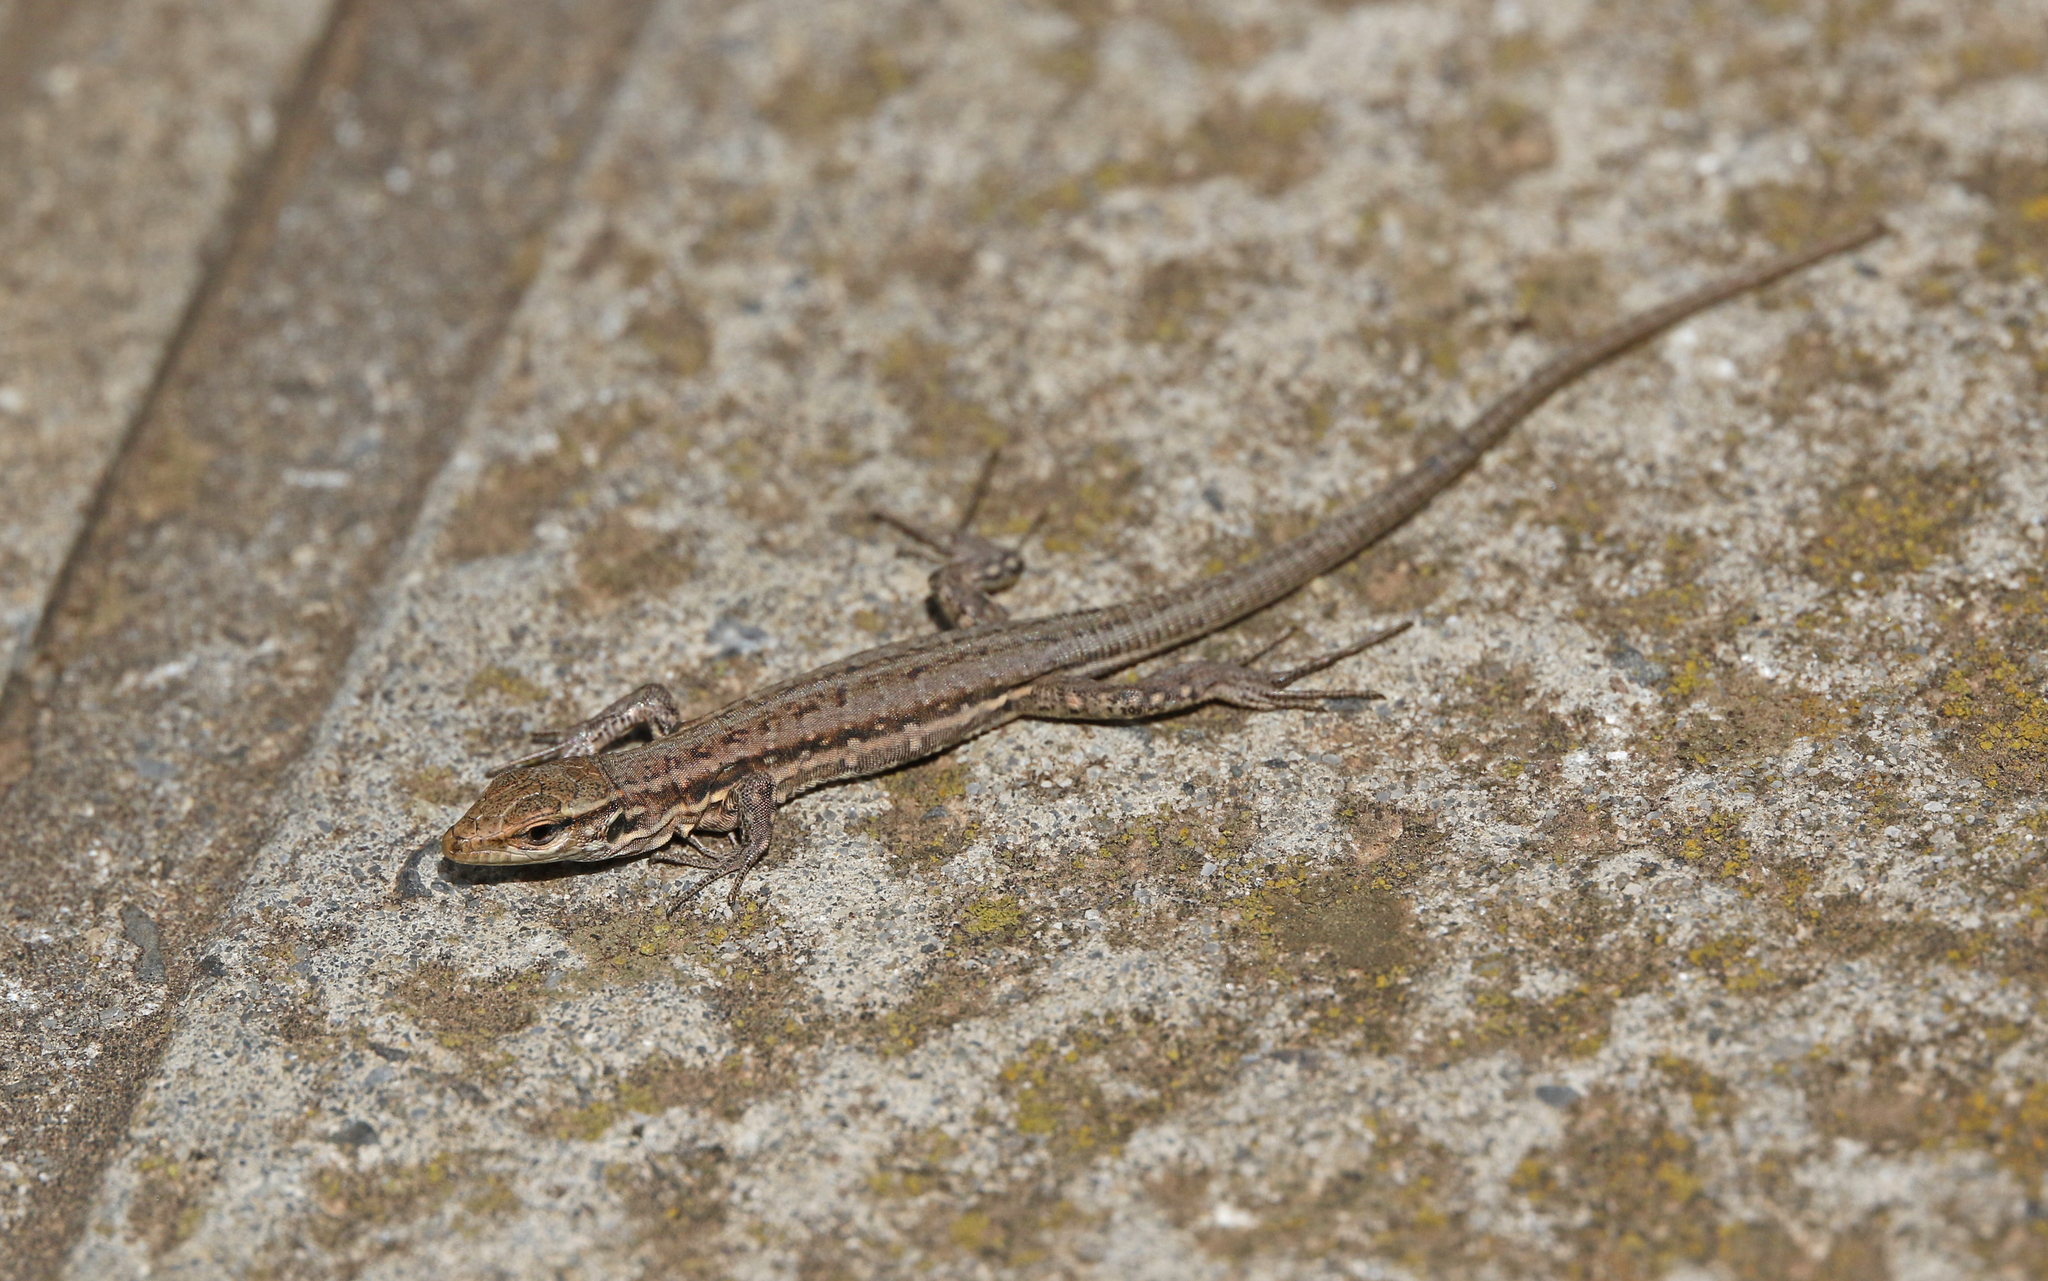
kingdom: Animalia
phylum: Chordata
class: Squamata
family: Lacertidae
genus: Gallotia
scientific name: Gallotia galloti
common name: Gallot's lizard
